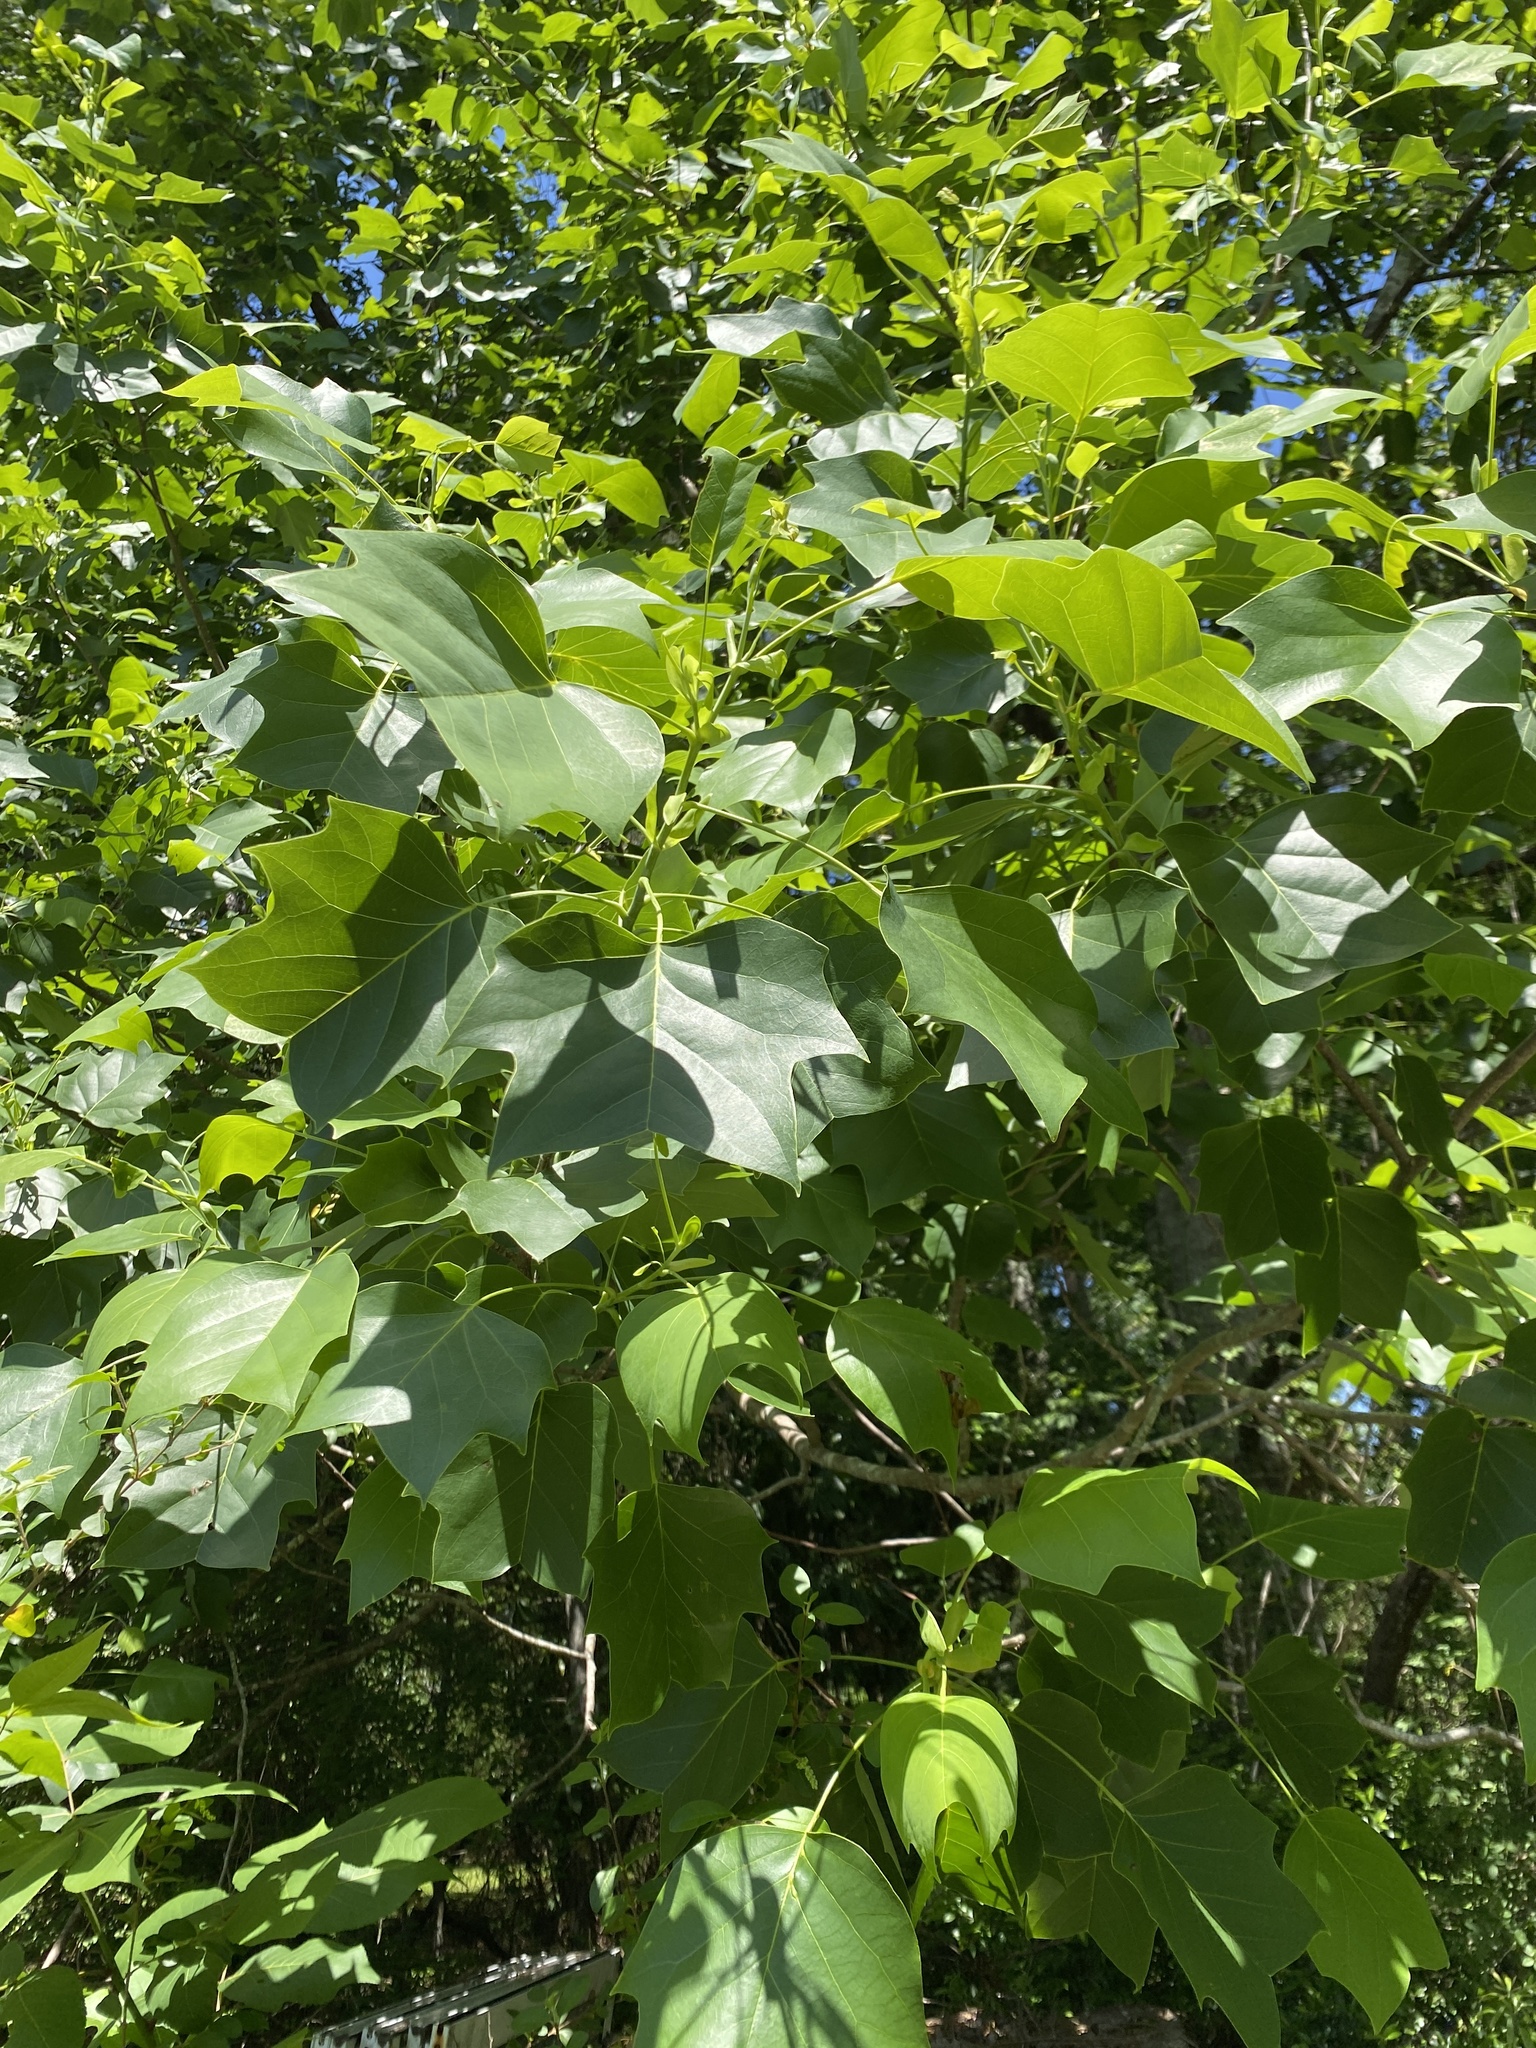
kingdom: Plantae
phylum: Tracheophyta
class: Magnoliopsida
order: Magnoliales
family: Magnoliaceae
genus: Liriodendron
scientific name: Liriodendron tulipifera
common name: Tulip tree
